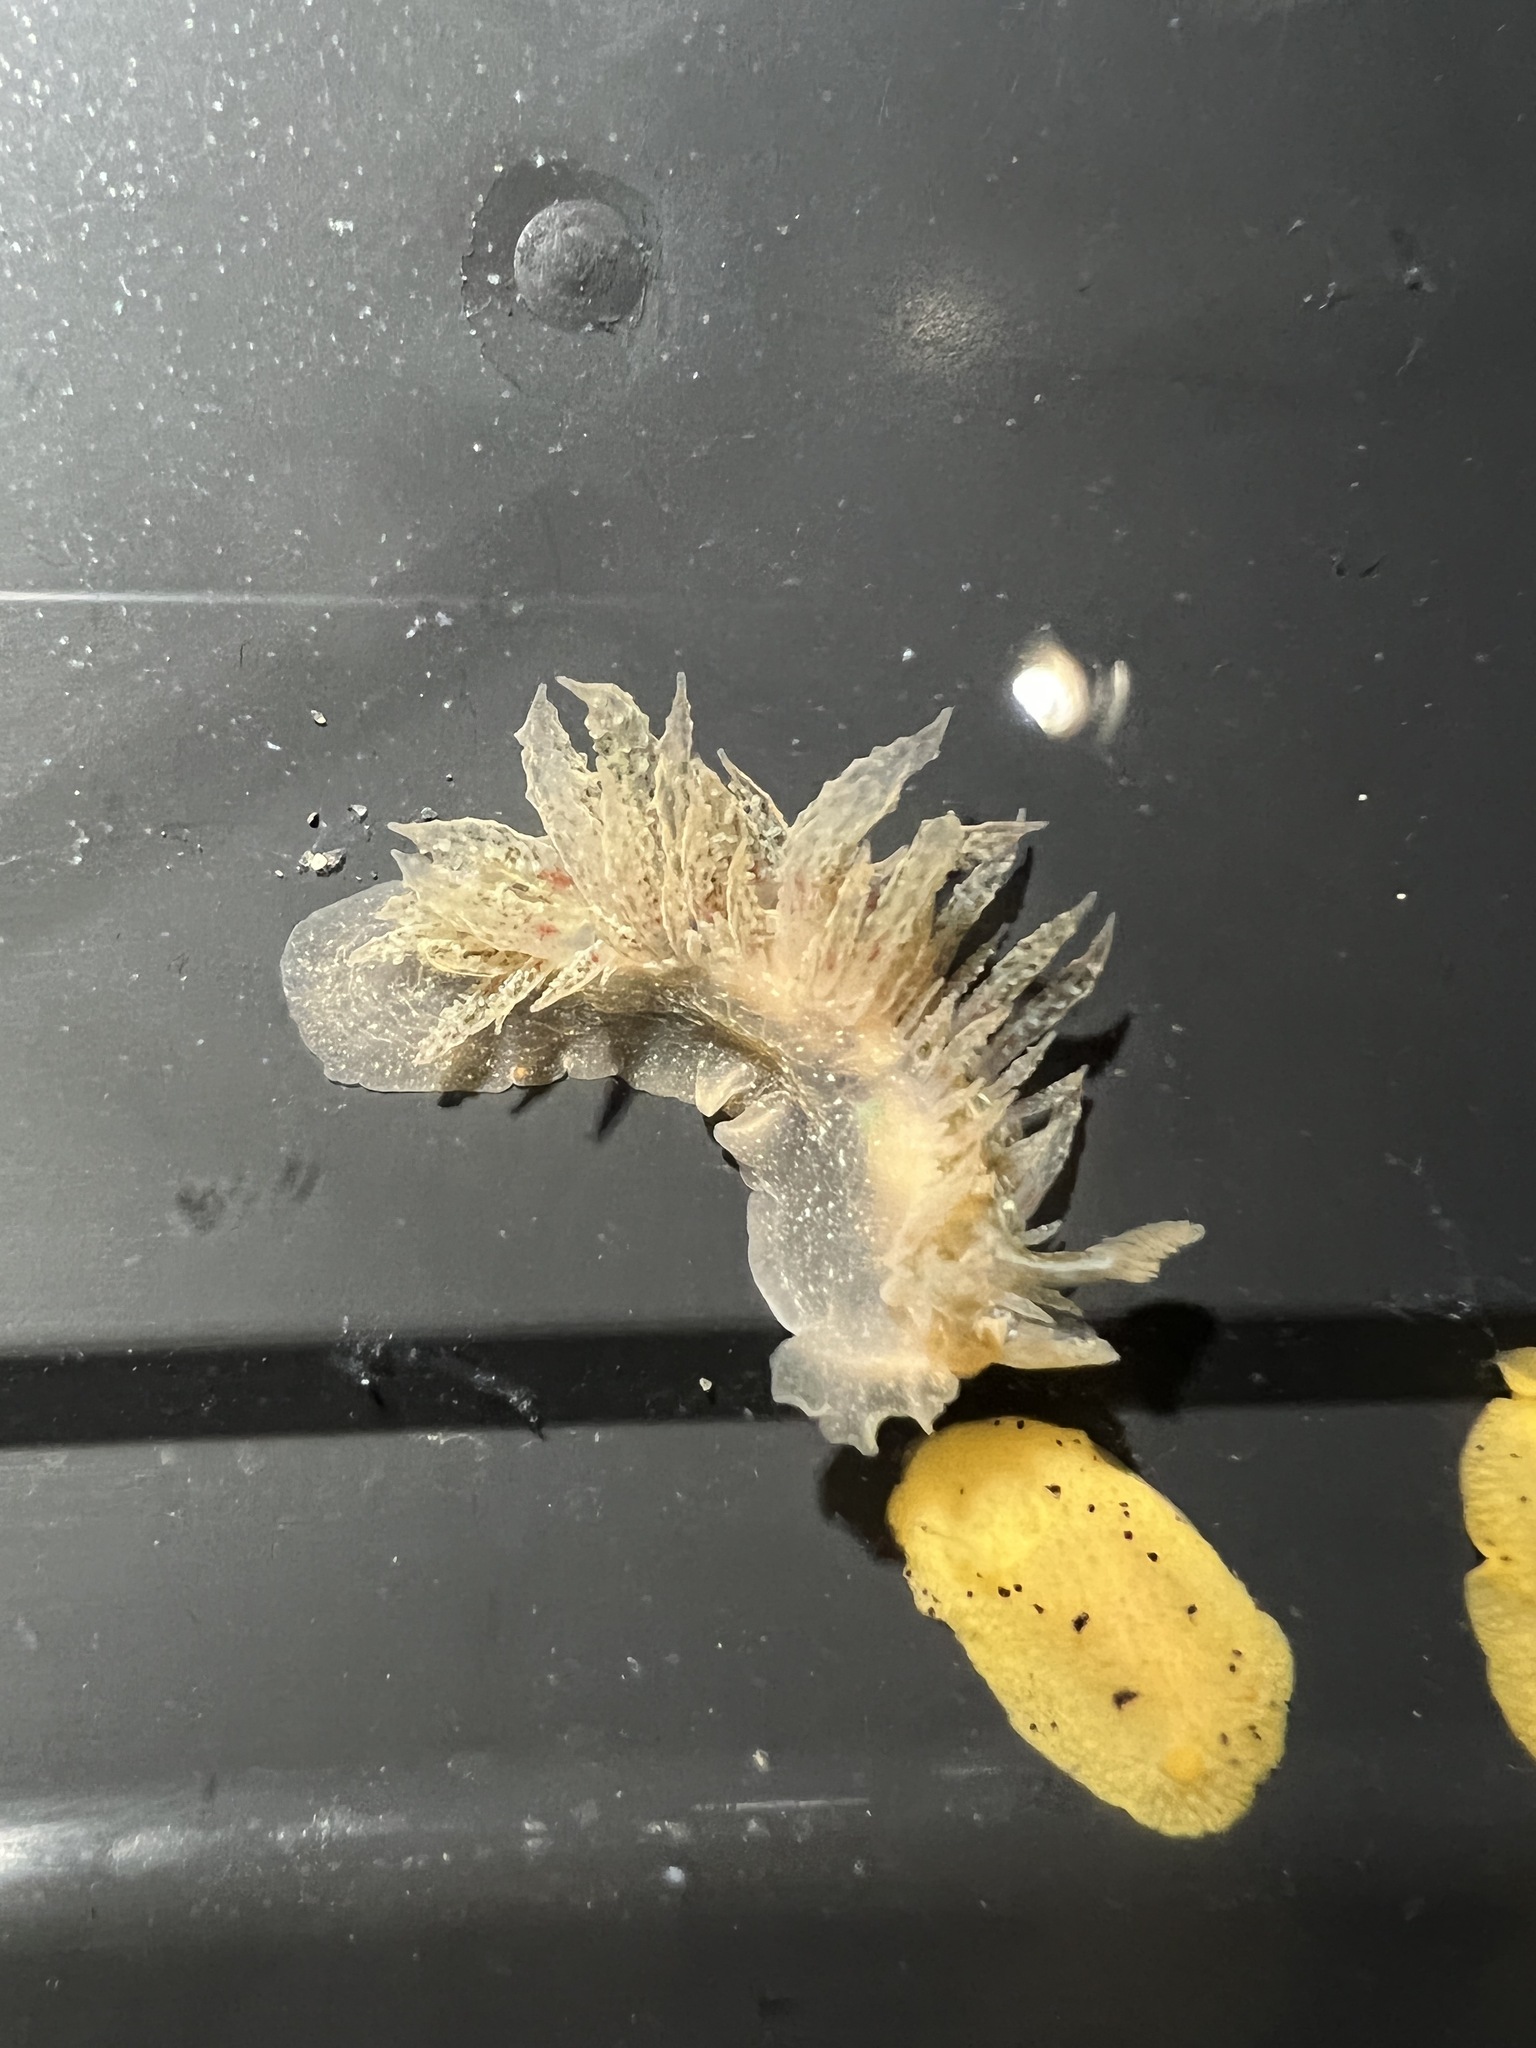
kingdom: Animalia
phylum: Mollusca
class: Gastropoda
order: Nudibranchia
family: Dironidae
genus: Dirona
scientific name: Dirona picta
